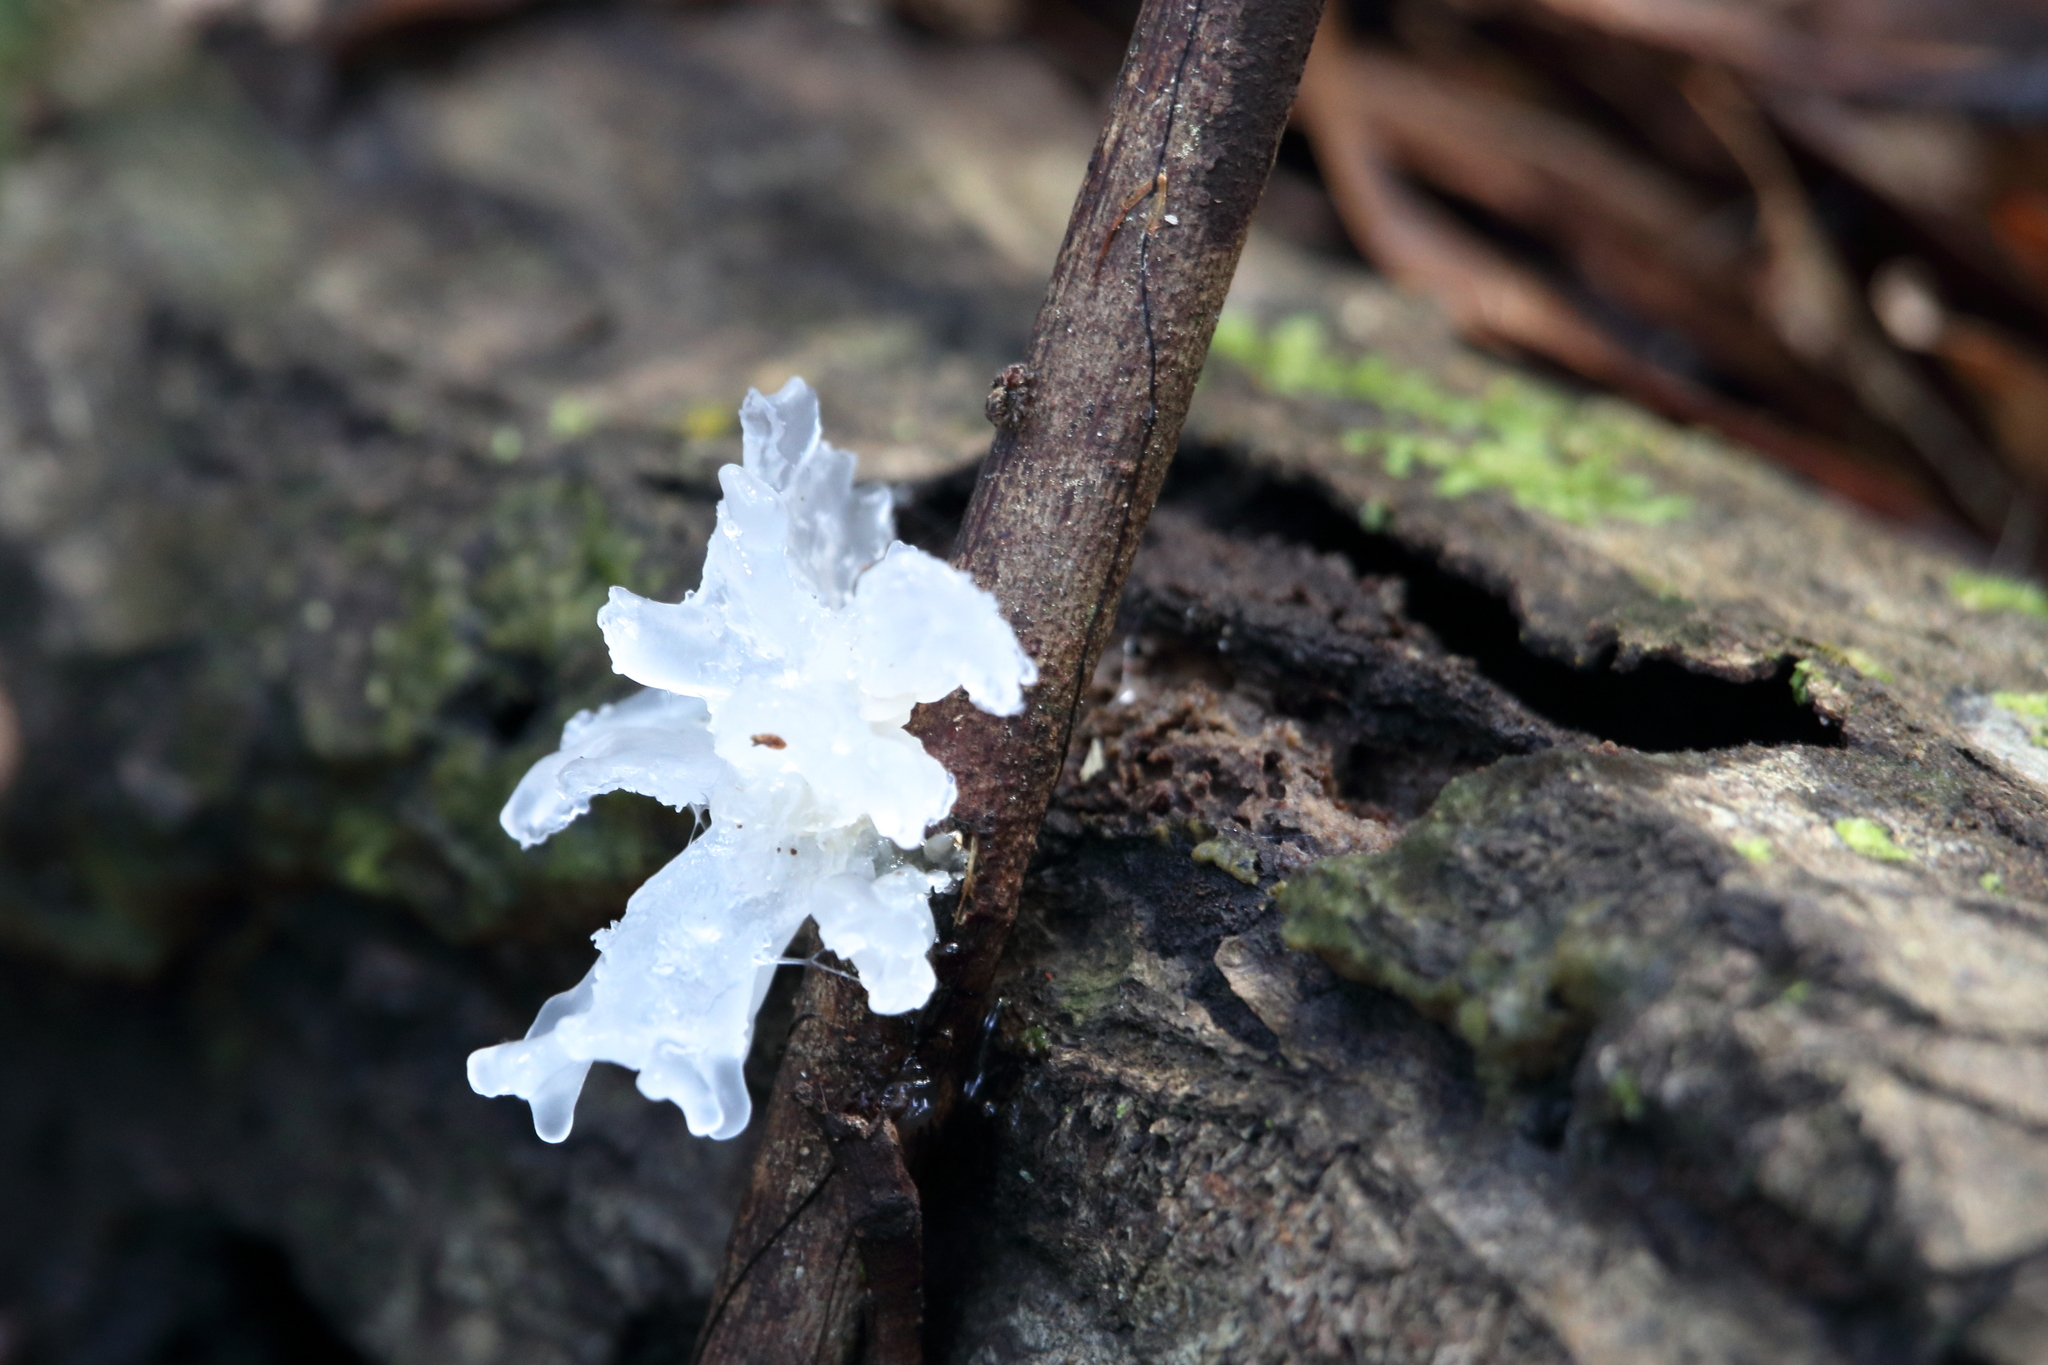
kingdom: Fungi
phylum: Basidiomycota
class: Tremellomycetes
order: Tremellales
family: Tremellaceae
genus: Tremella
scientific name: Tremella fuciformis
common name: Snow fungus
